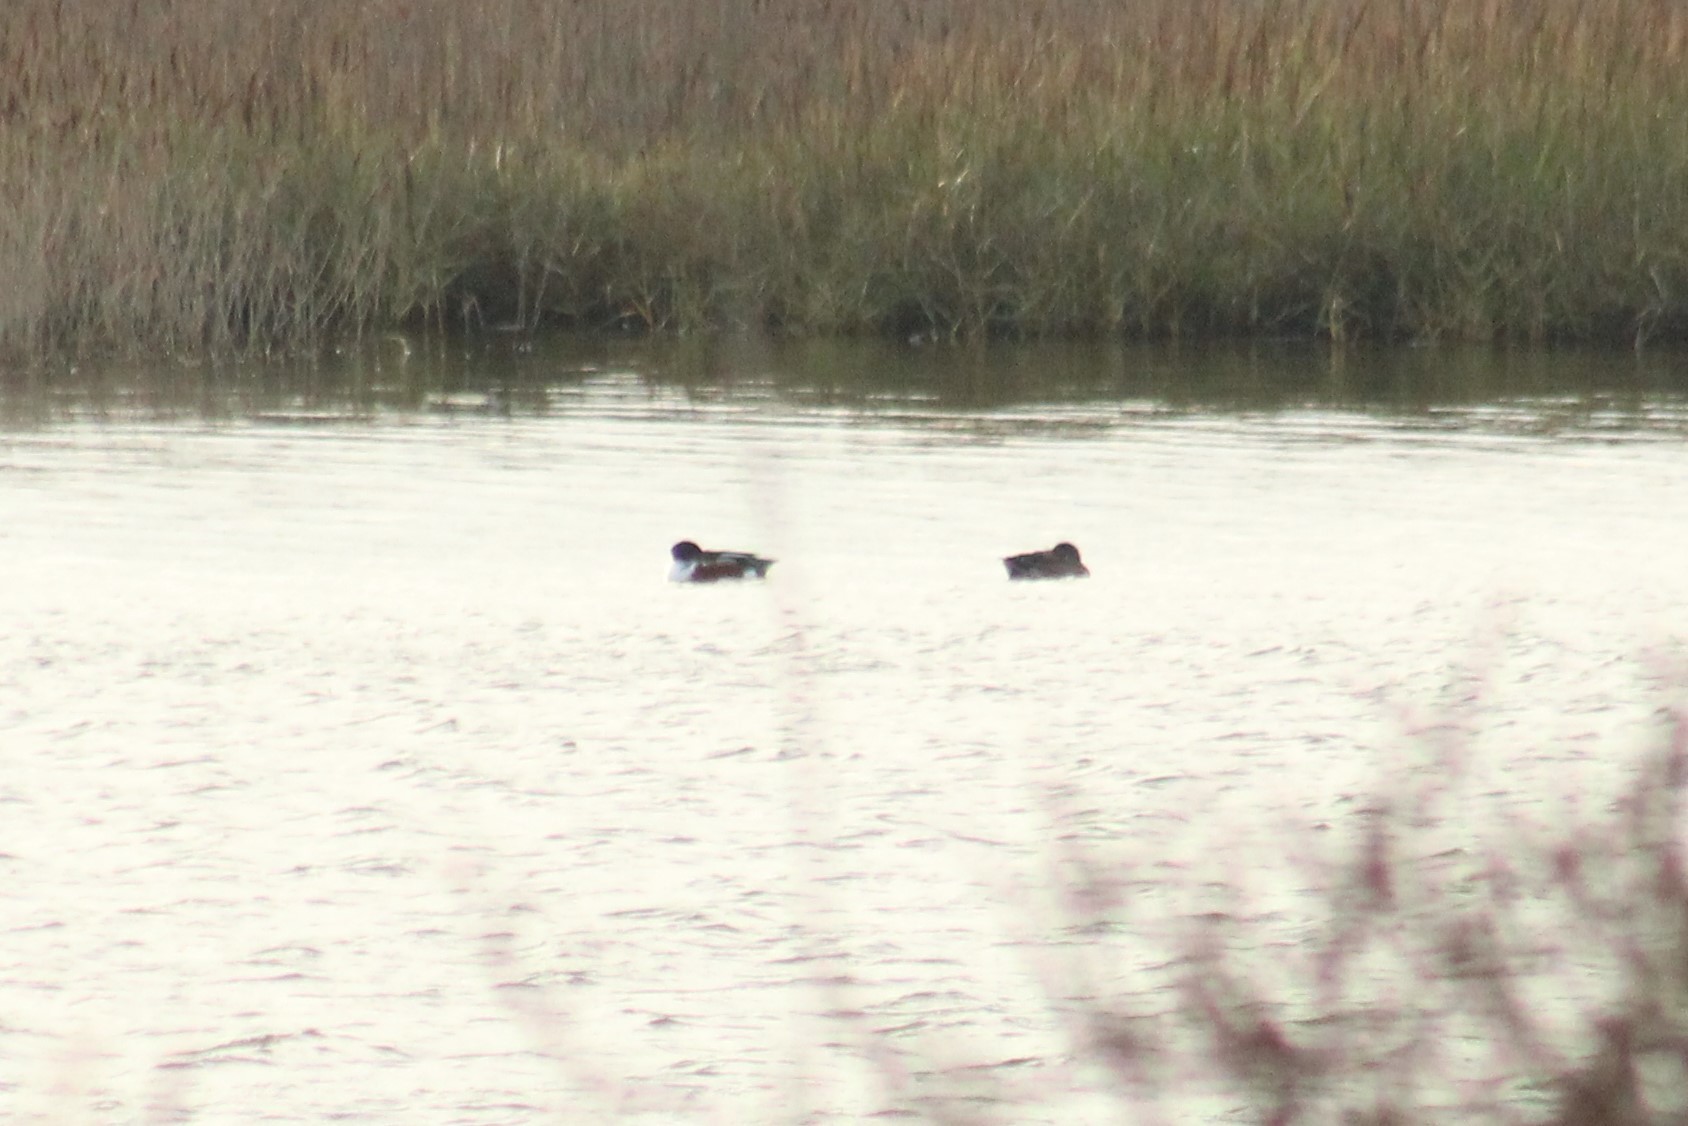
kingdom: Animalia
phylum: Chordata
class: Aves
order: Anseriformes
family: Anatidae
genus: Spatula
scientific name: Spatula clypeata
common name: Northern shoveler
